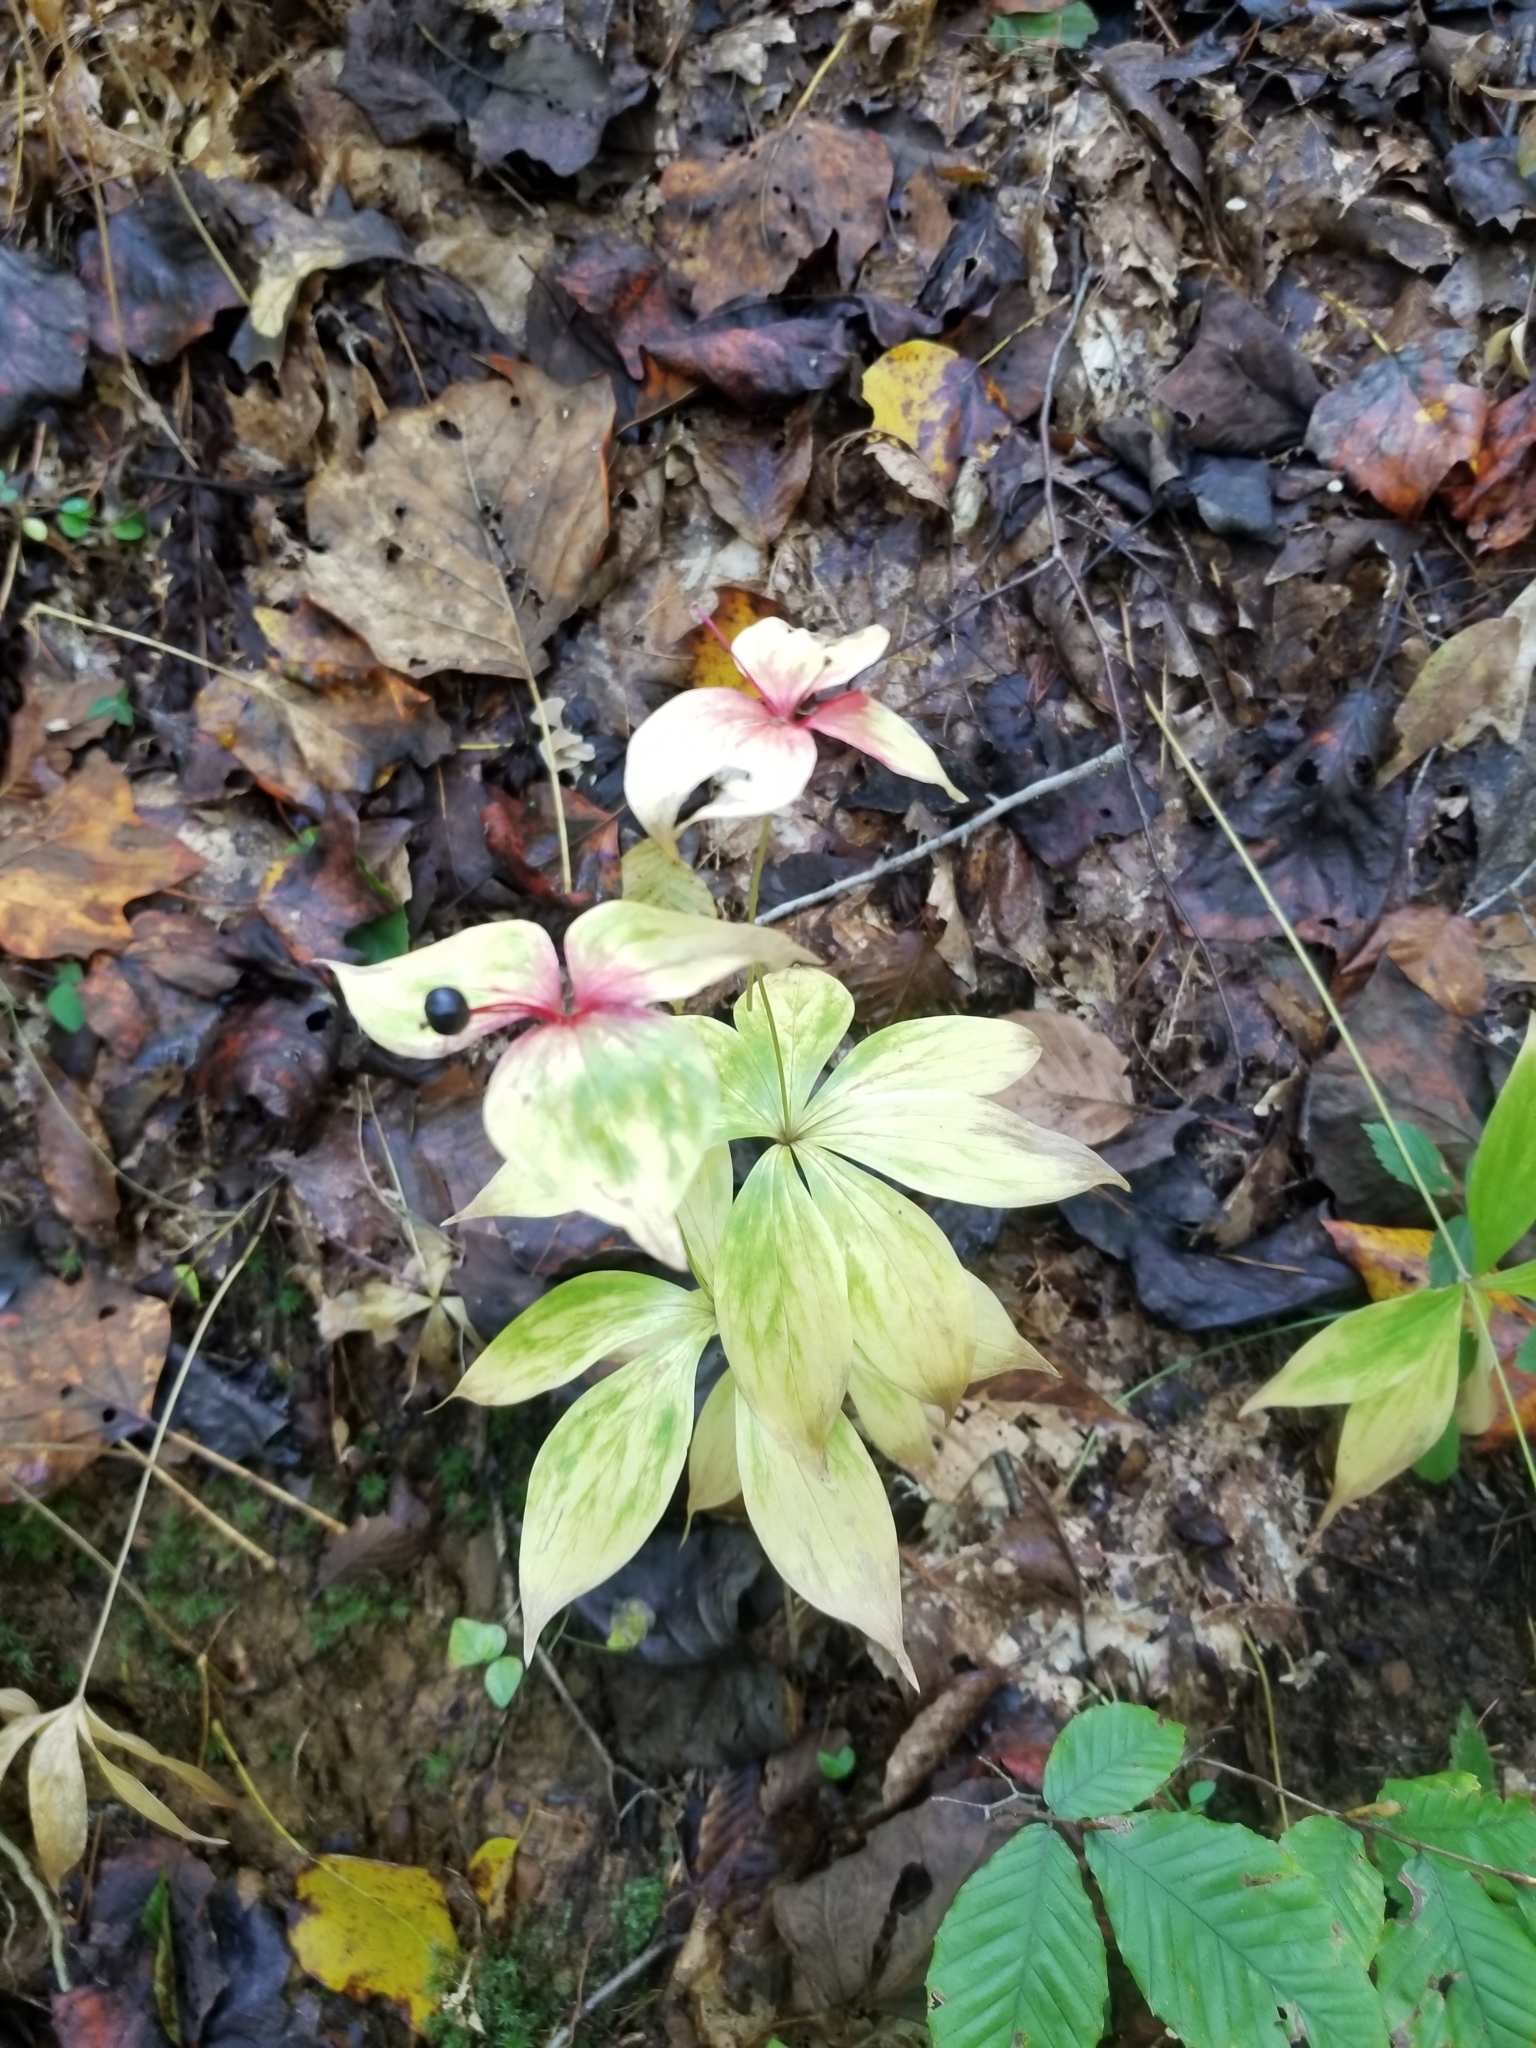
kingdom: Plantae
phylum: Tracheophyta
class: Liliopsida
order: Liliales
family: Liliaceae
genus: Medeola
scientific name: Medeola virginiana
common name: Indian cucumber-root
